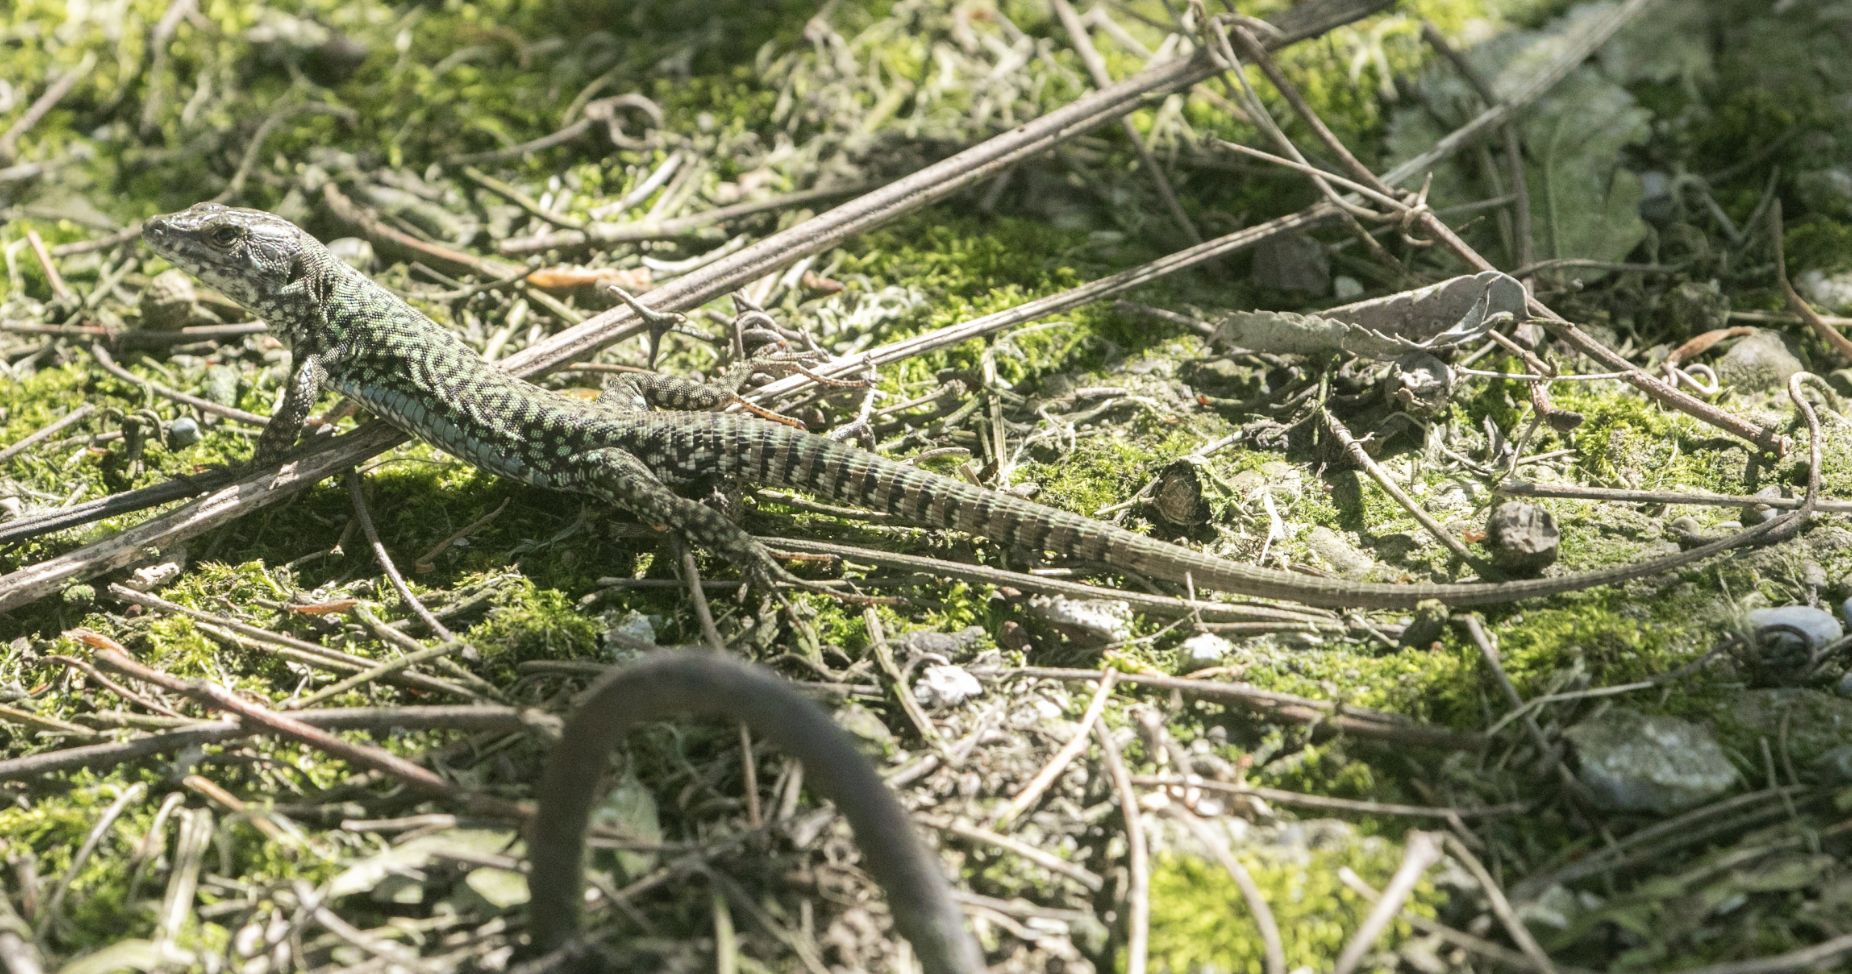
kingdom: Animalia
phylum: Chordata
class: Squamata
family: Lacertidae
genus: Podarcis
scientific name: Podarcis muralis
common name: Common wall lizard
